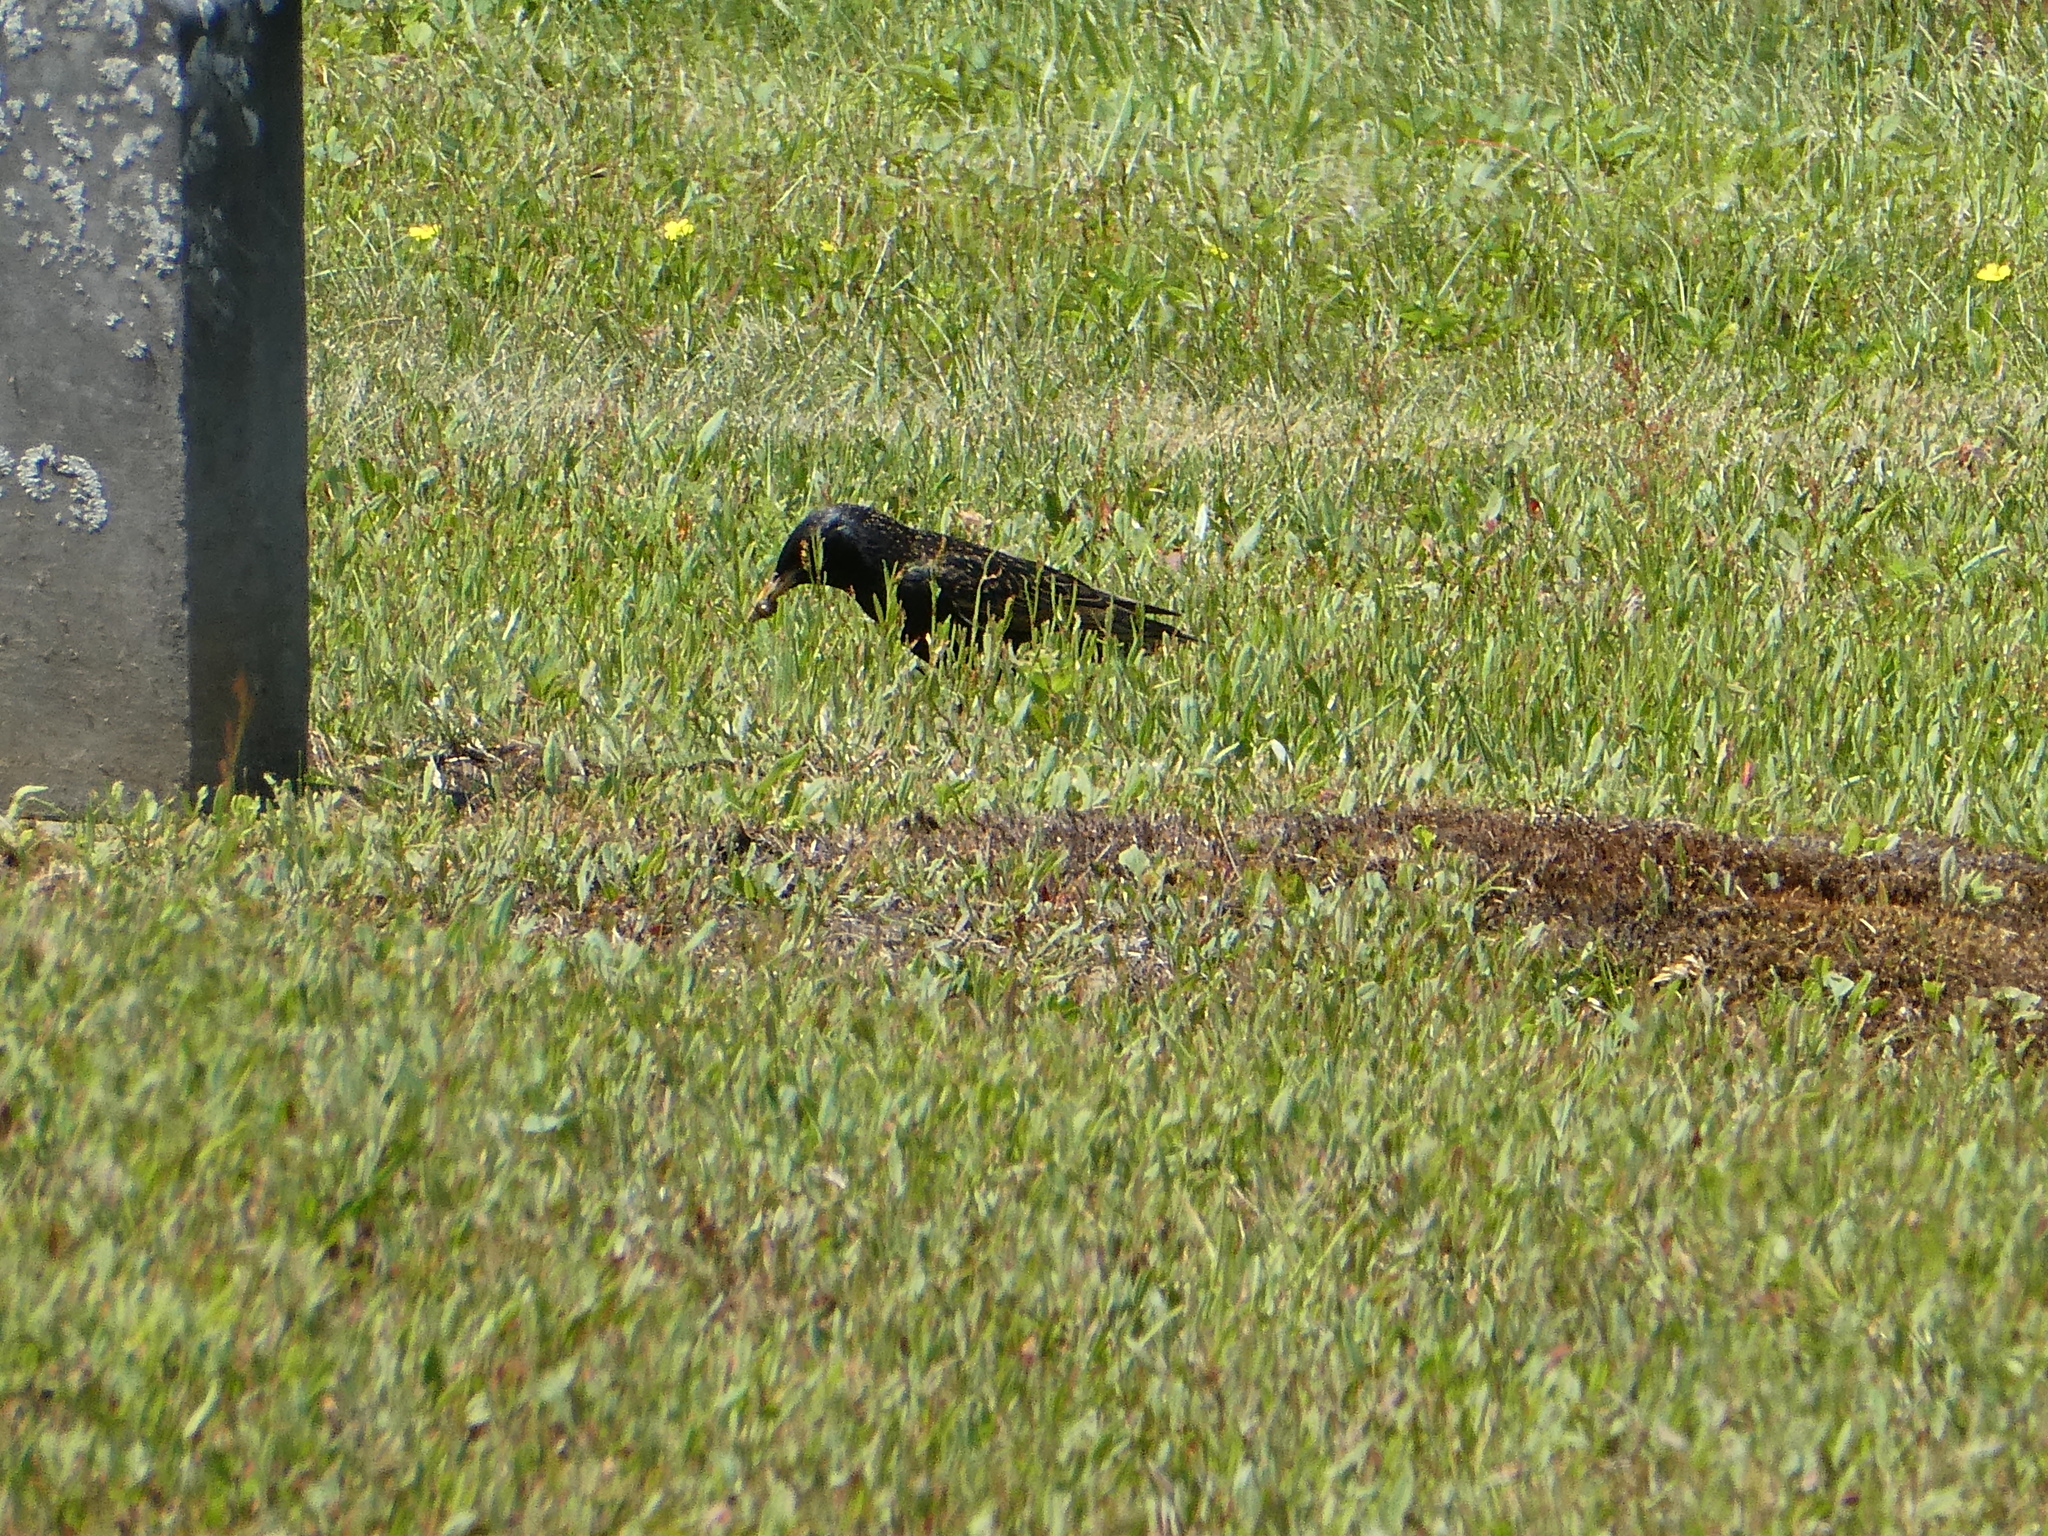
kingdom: Animalia
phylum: Chordata
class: Aves
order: Passeriformes
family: Sturnidae
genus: Sturnus
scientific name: Sturnus vulgaris
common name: Common starling
